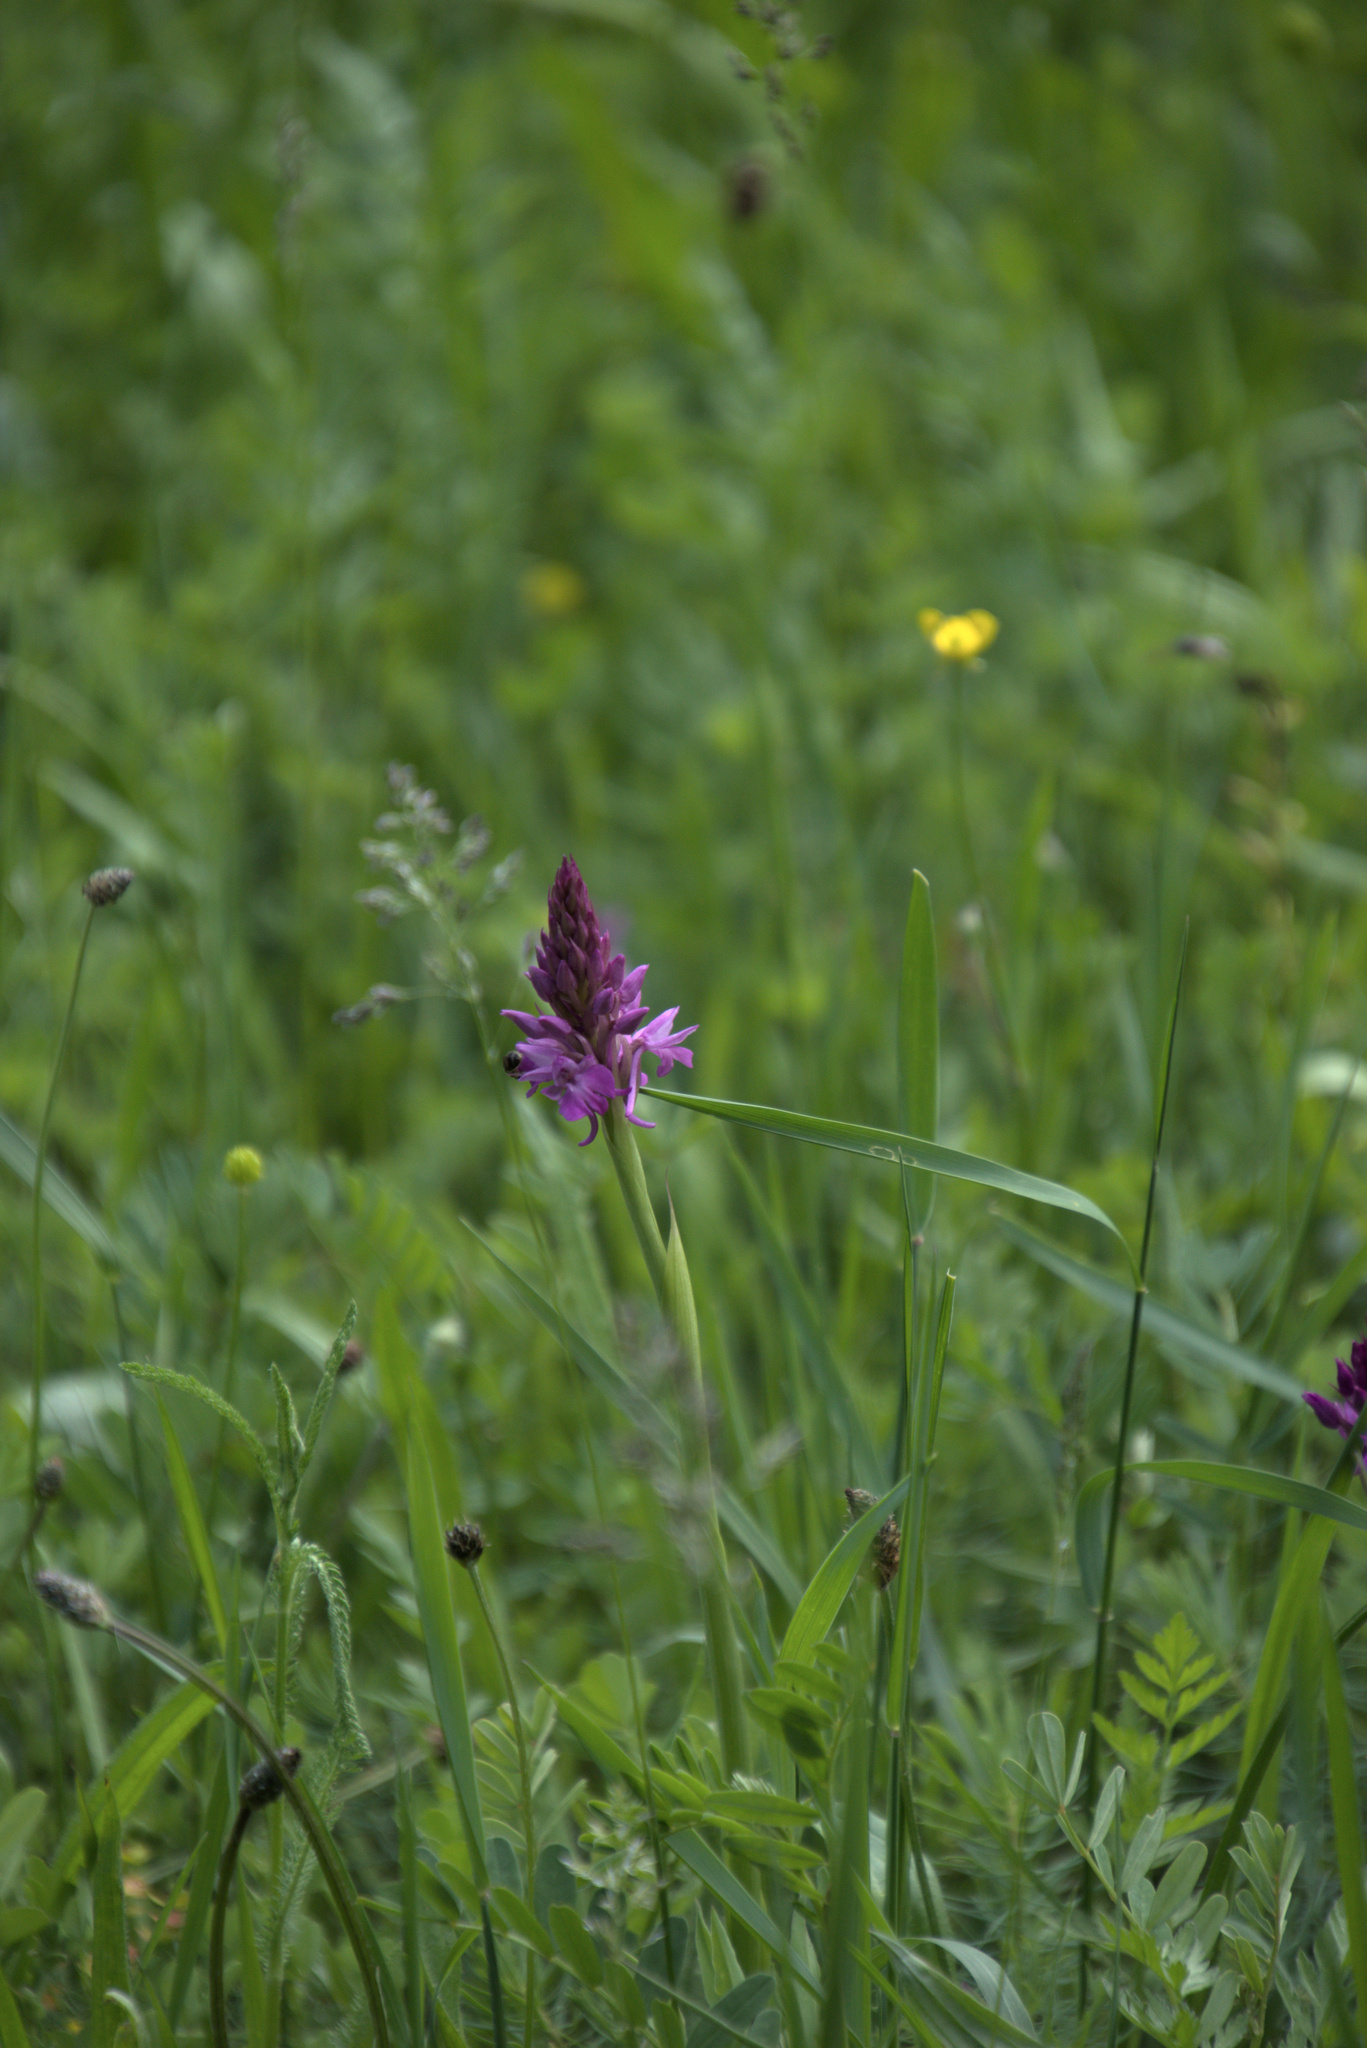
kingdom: Plantae
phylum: Tracheophyta
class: Liliopsida
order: Asparagales
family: Orchidaceae
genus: Anacamptis
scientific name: Anacamptis pyramidalis
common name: Pyramidal orchid
